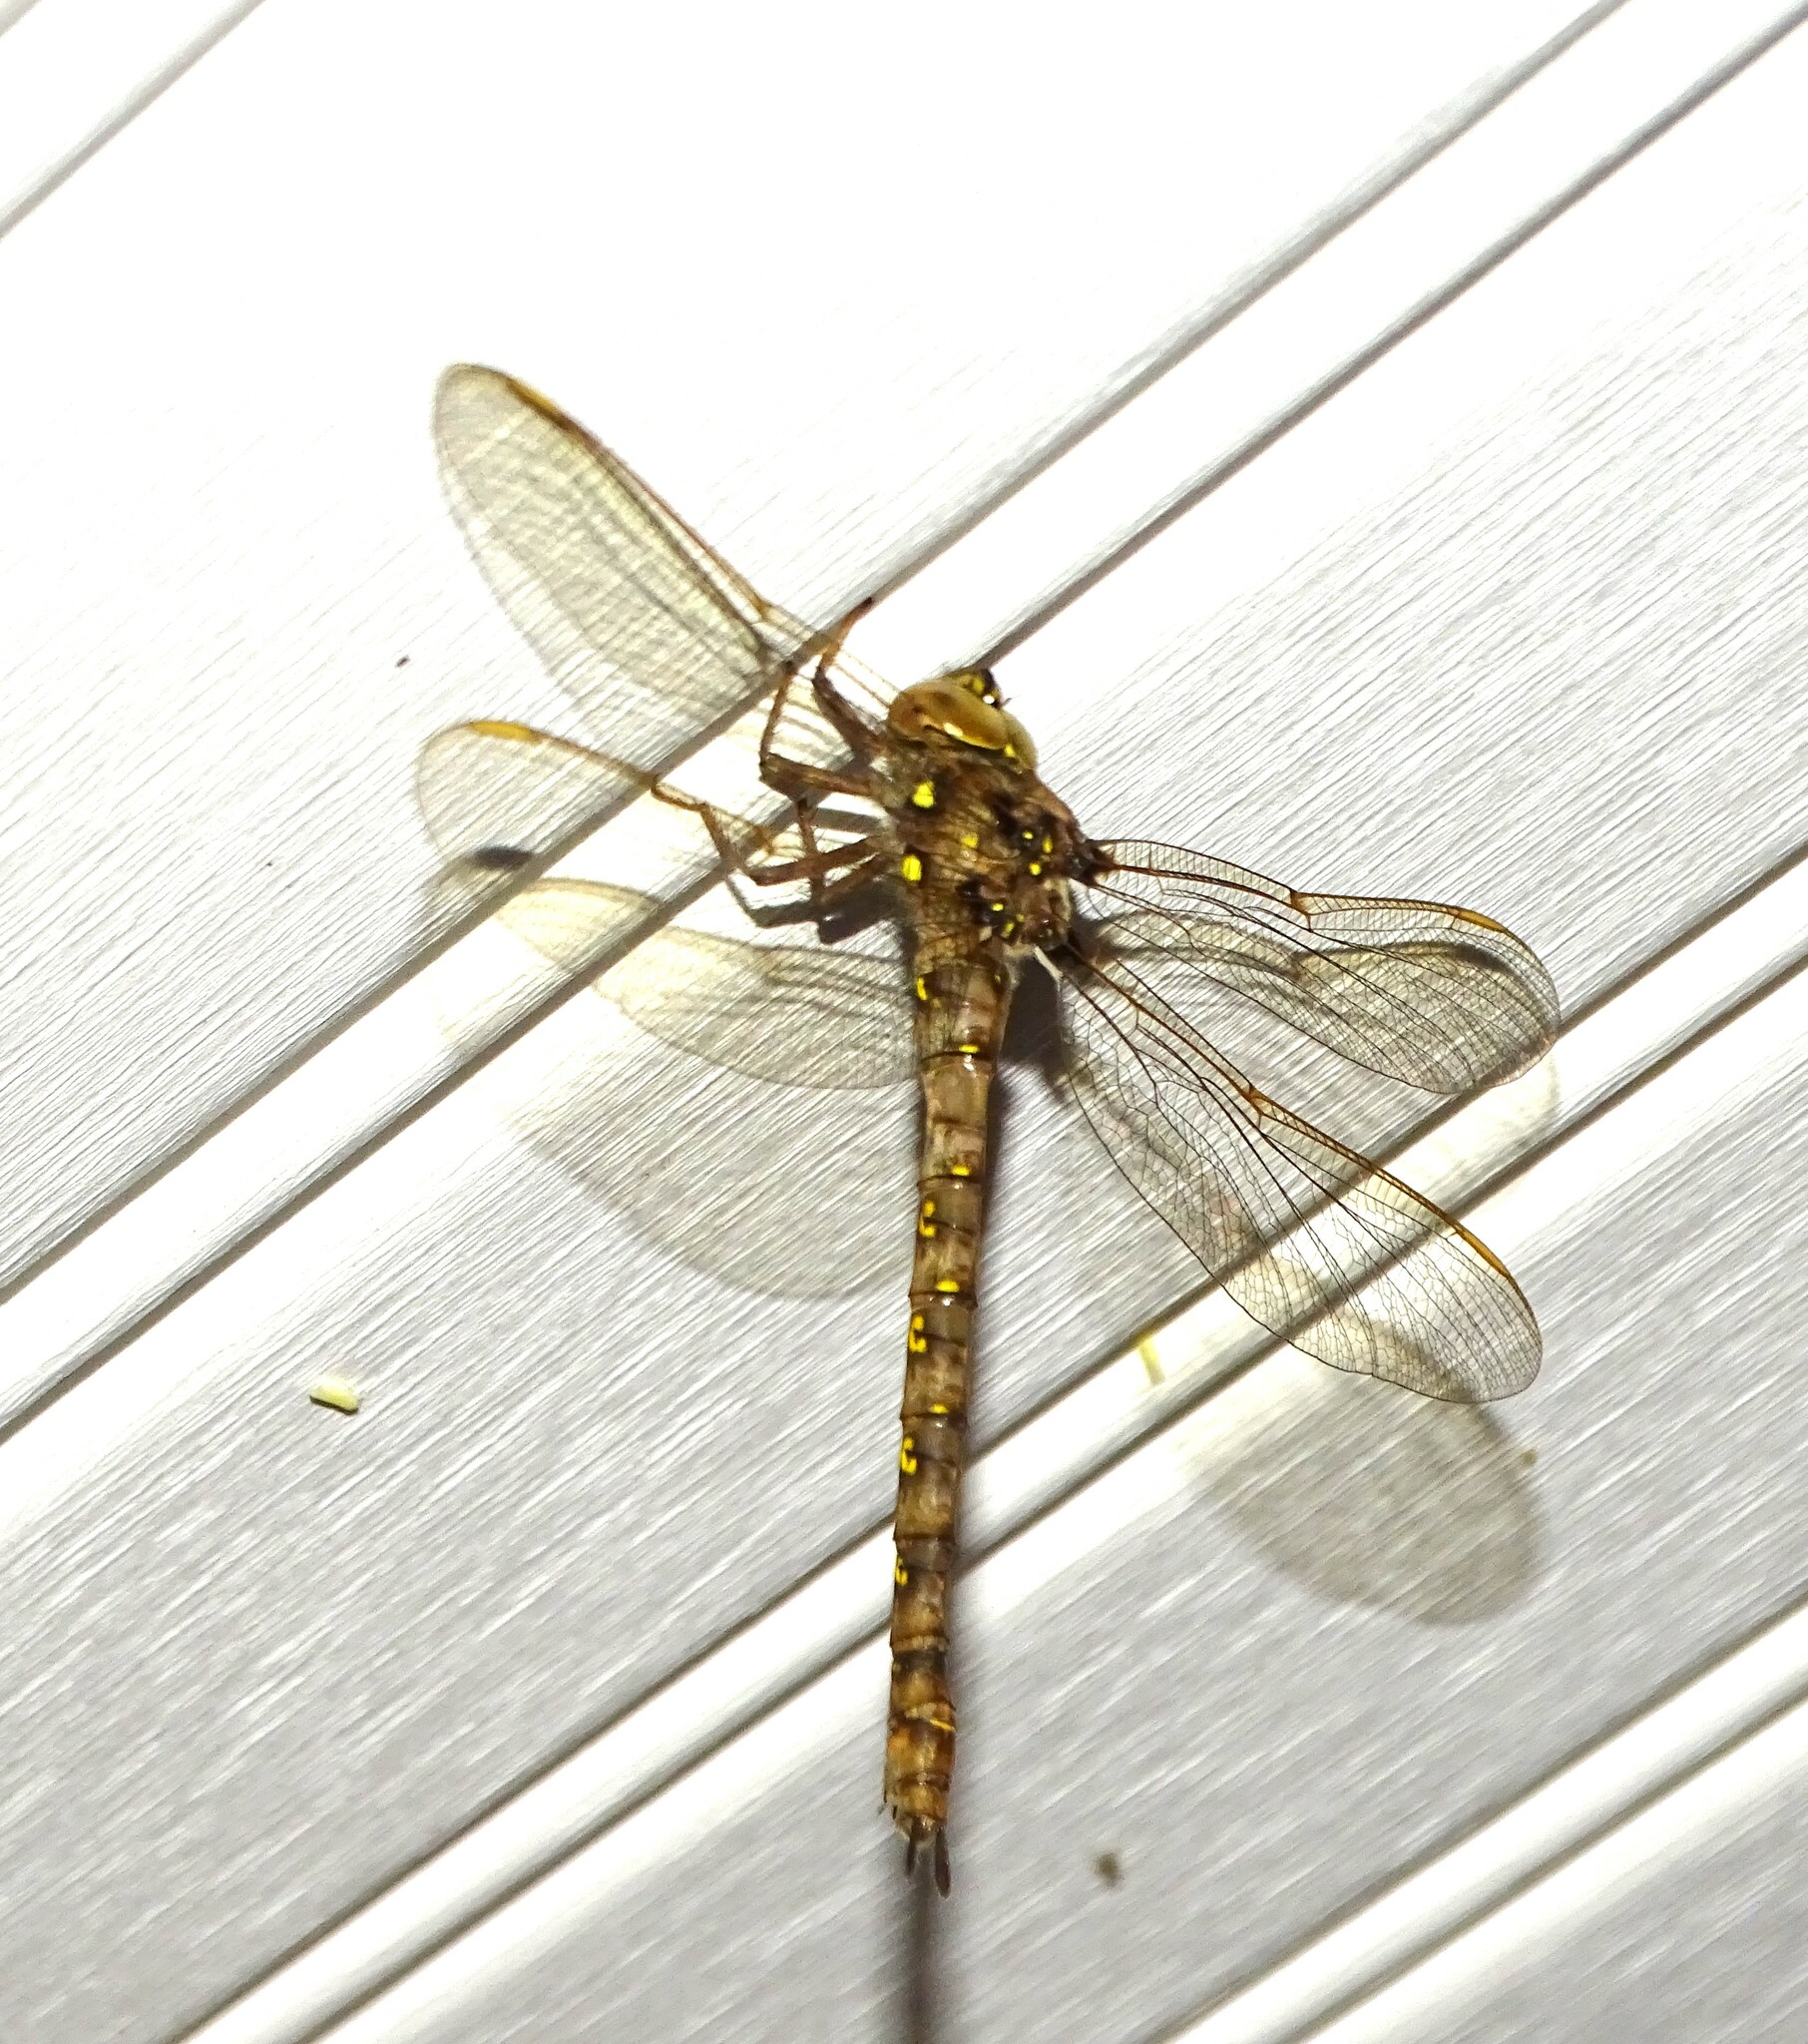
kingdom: Animalia
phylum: Arthropoda
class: Insecta
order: Odonata
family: Aeshnidae
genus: Boyeria
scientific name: Boyeria vinosa
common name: Fawn darner
